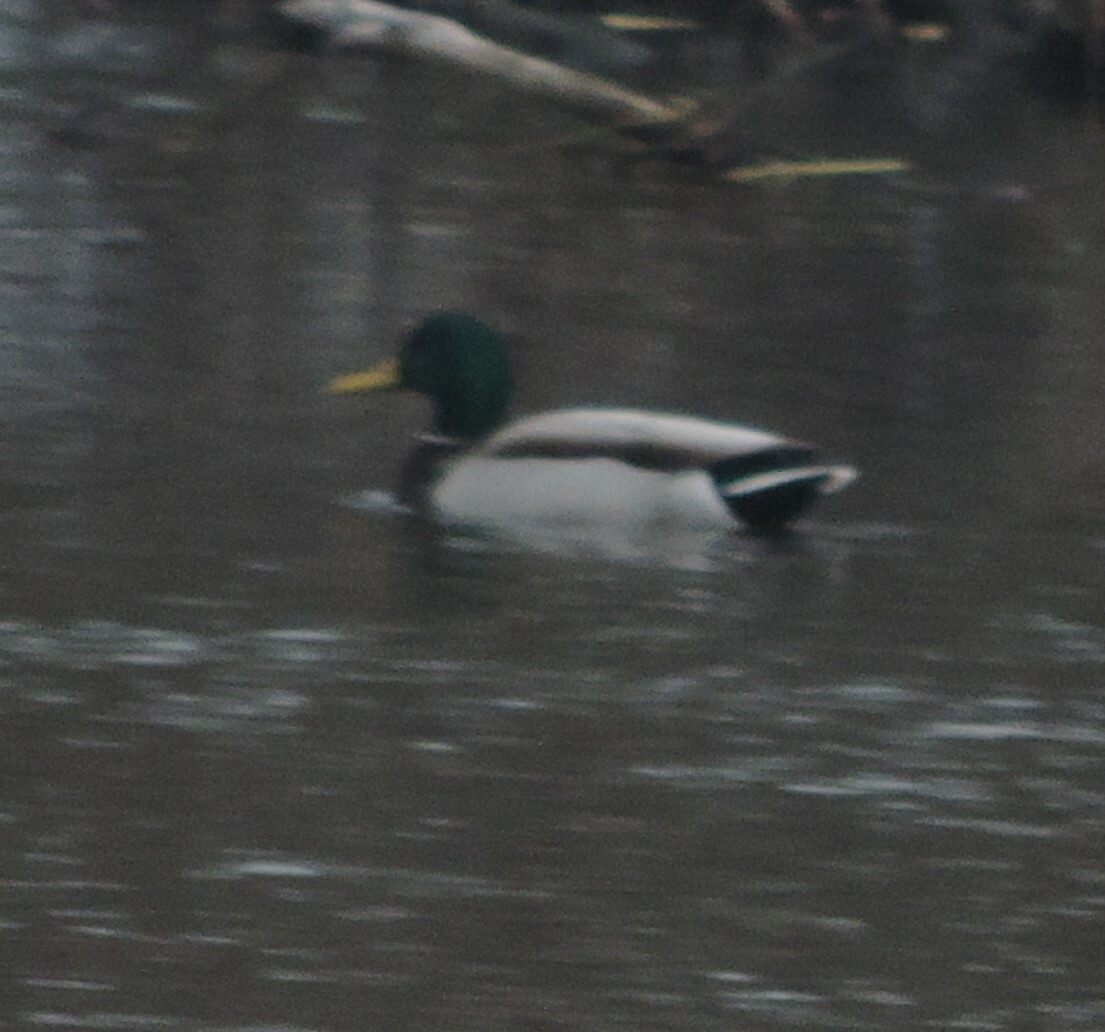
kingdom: Animalia
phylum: Chordata
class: Aves
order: Anseriformes
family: Anatidae
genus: Anas
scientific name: Anas platyrhynchos
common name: Mallard
